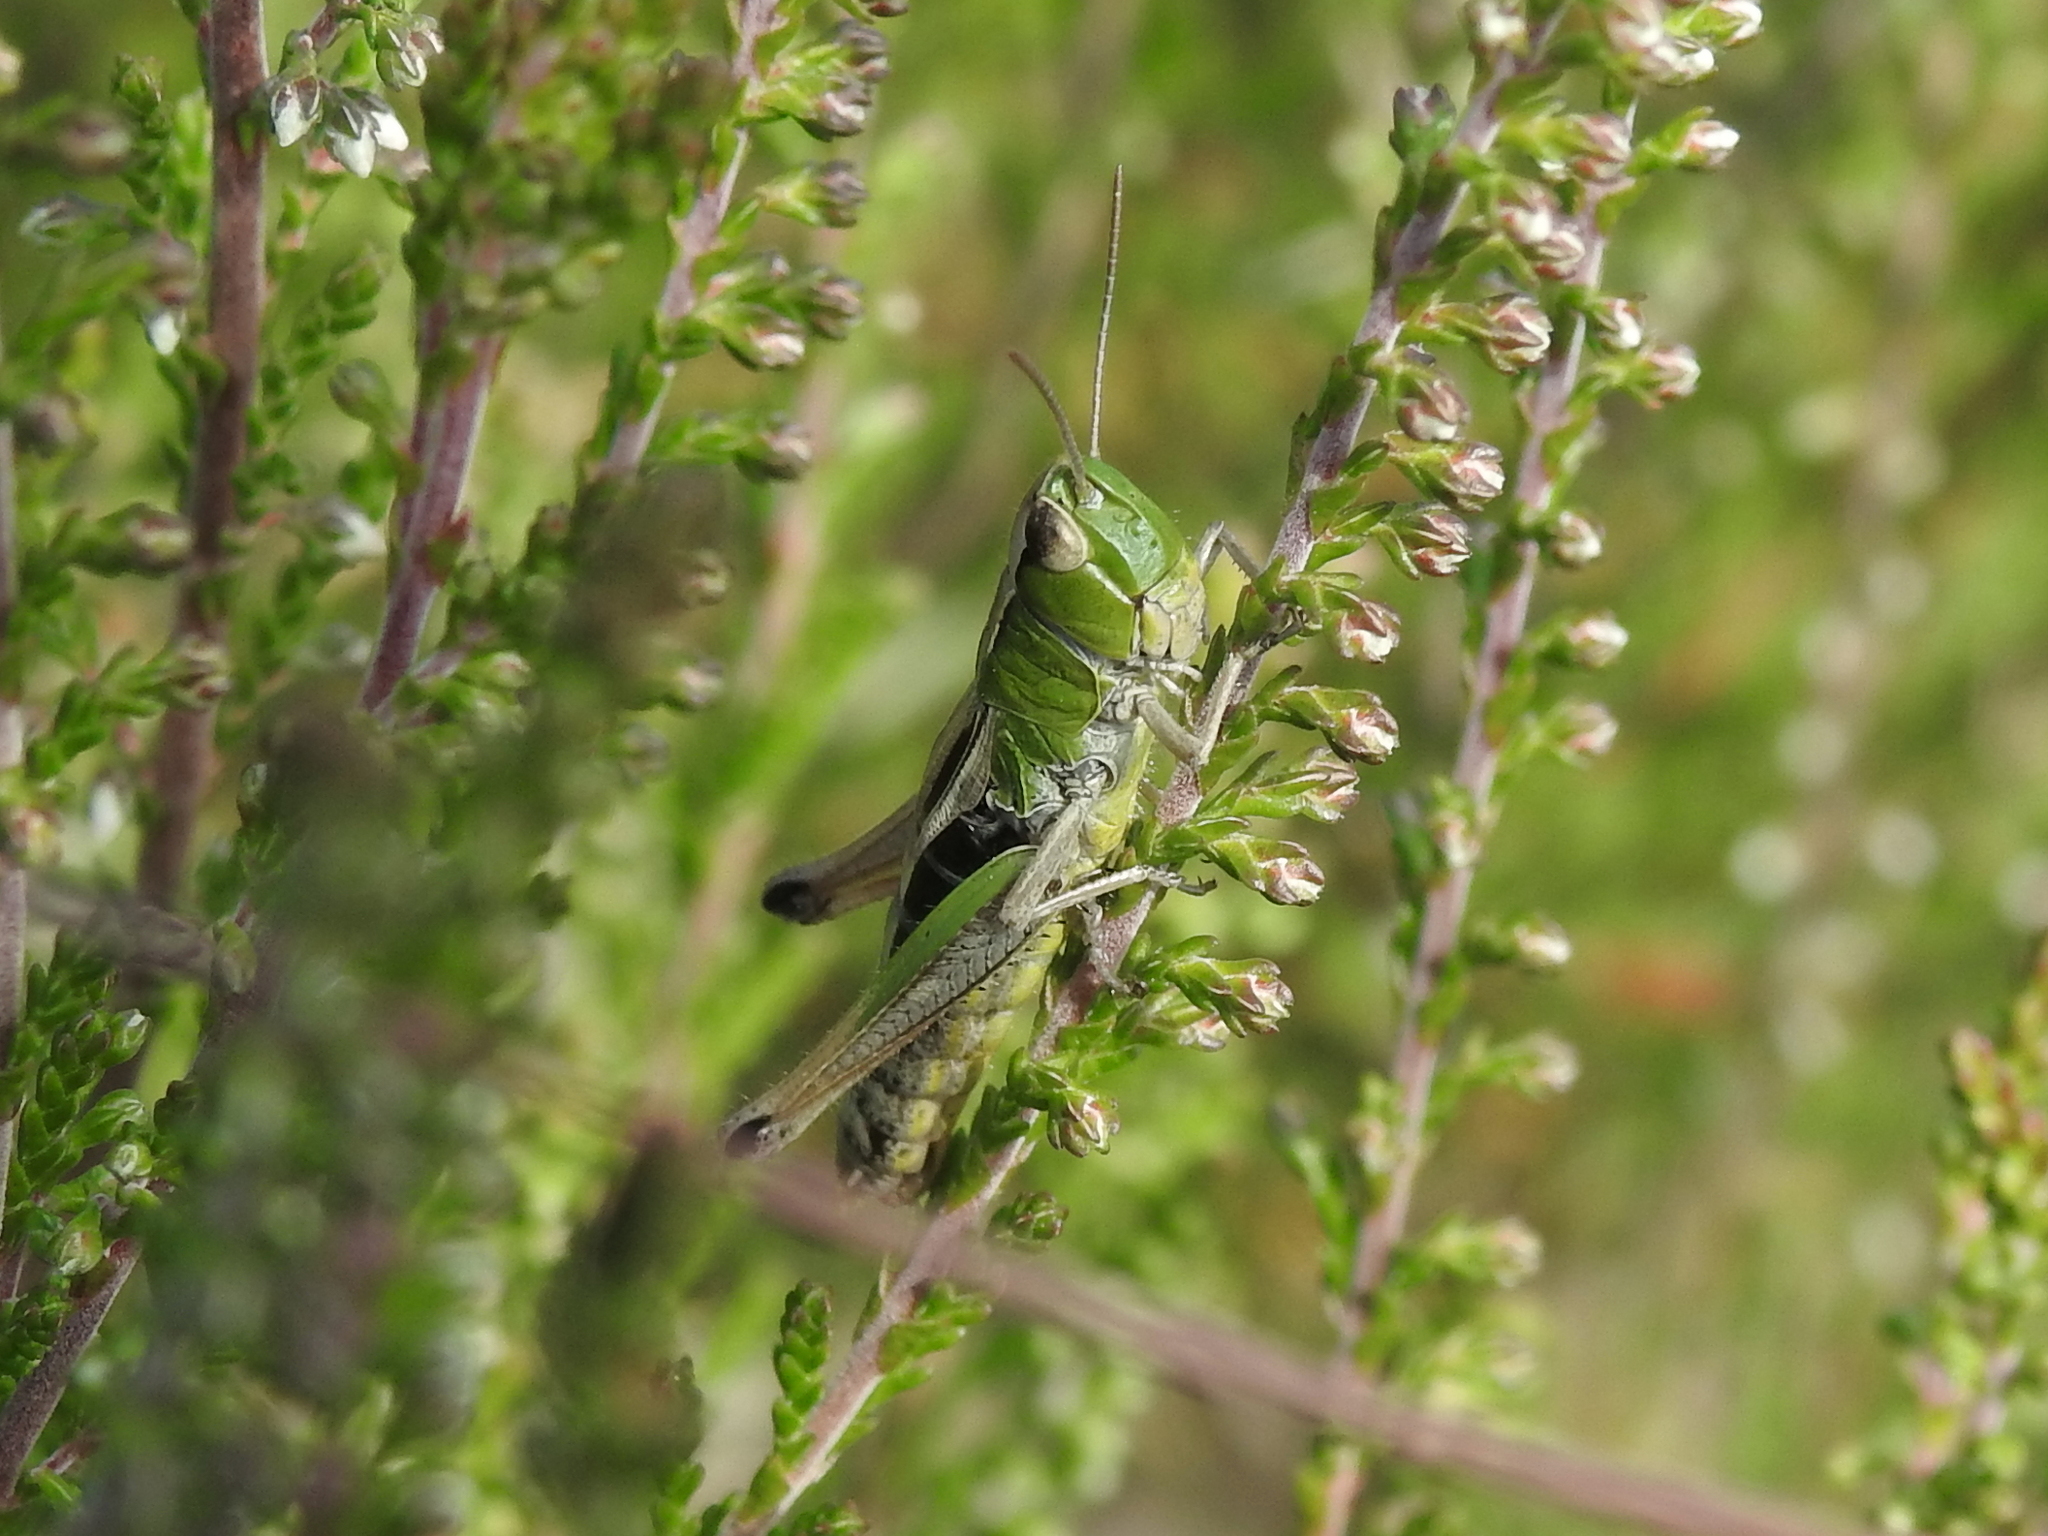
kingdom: Animalia
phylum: Arthropoda
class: Insecta
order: Orthoptera
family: Acrididae
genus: Pseudochorthippus
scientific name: Pseudochorthippus parallelus
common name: Meadow grasshopper
